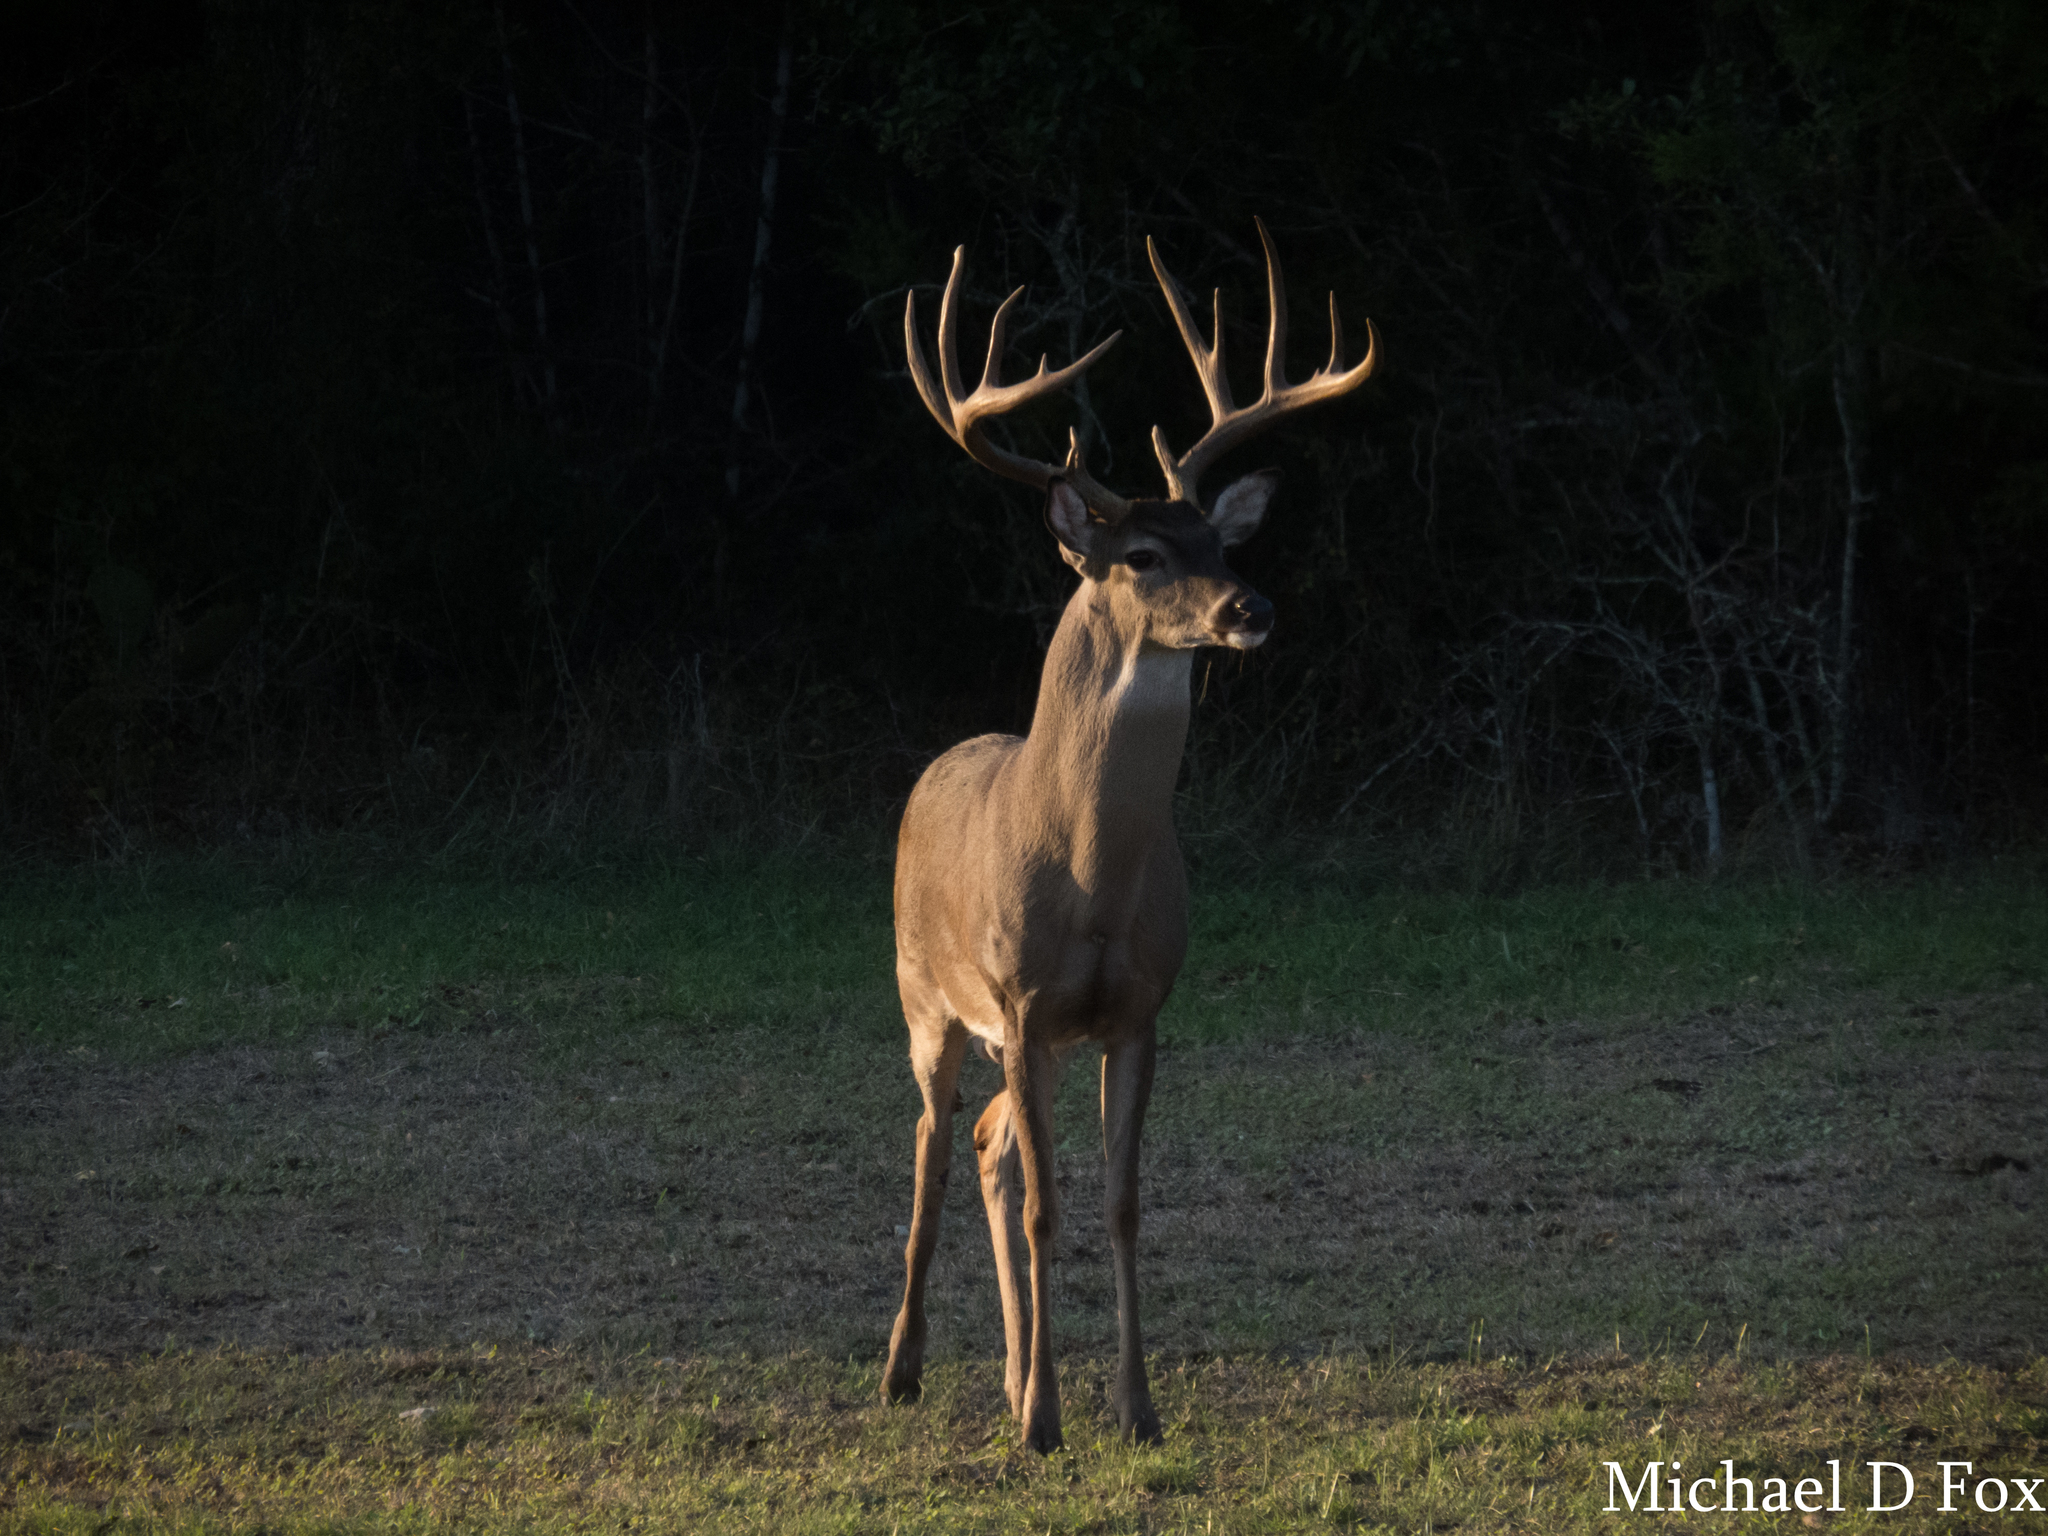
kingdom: Animalia
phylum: Chordata
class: Mammalia
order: Artiodactyla
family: Cervidae
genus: Odocoileus
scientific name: Odocoileus virginianus
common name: White-tailed deer
